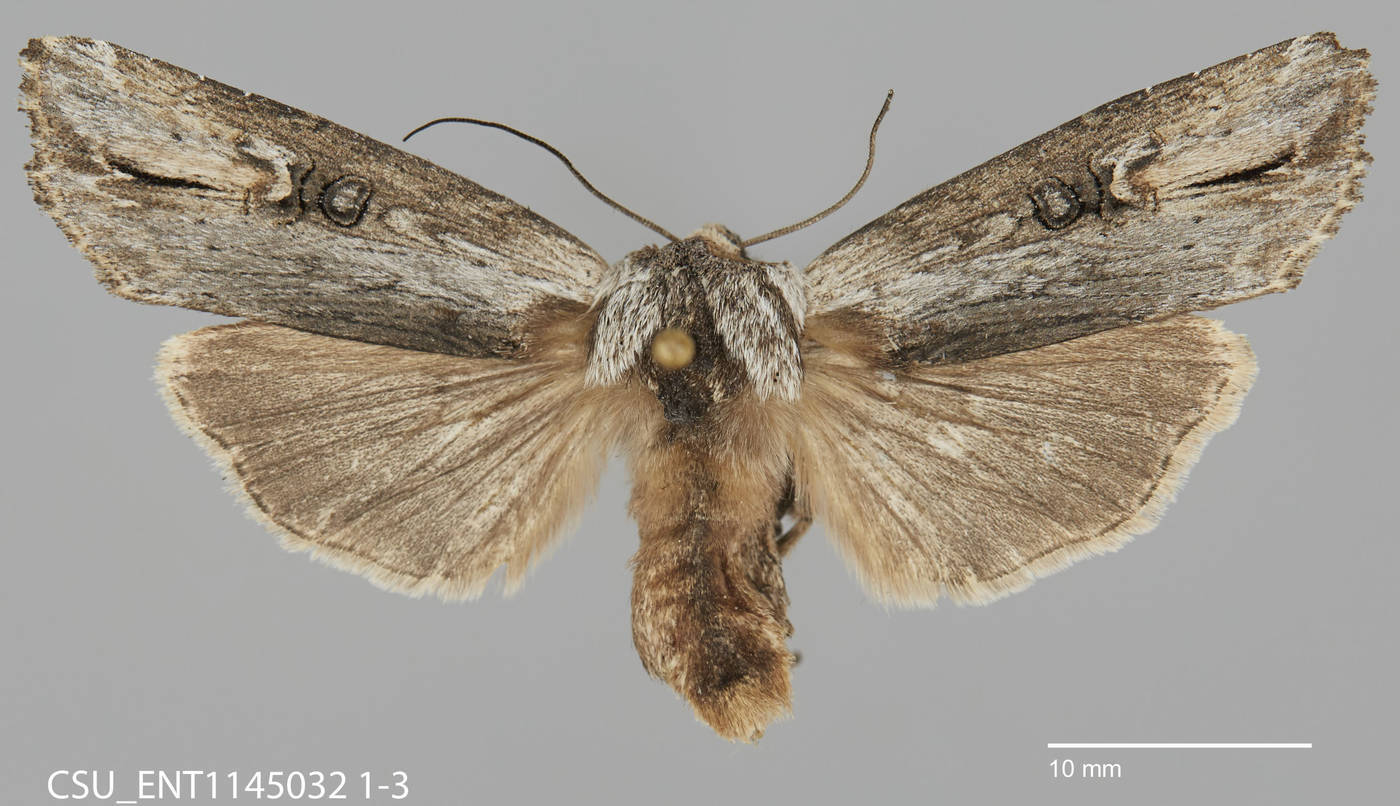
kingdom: Animalia
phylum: Arthropoda
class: Insecta
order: Lepidoptera
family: Noctuidae
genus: Xylena
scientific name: Xylena brucei
